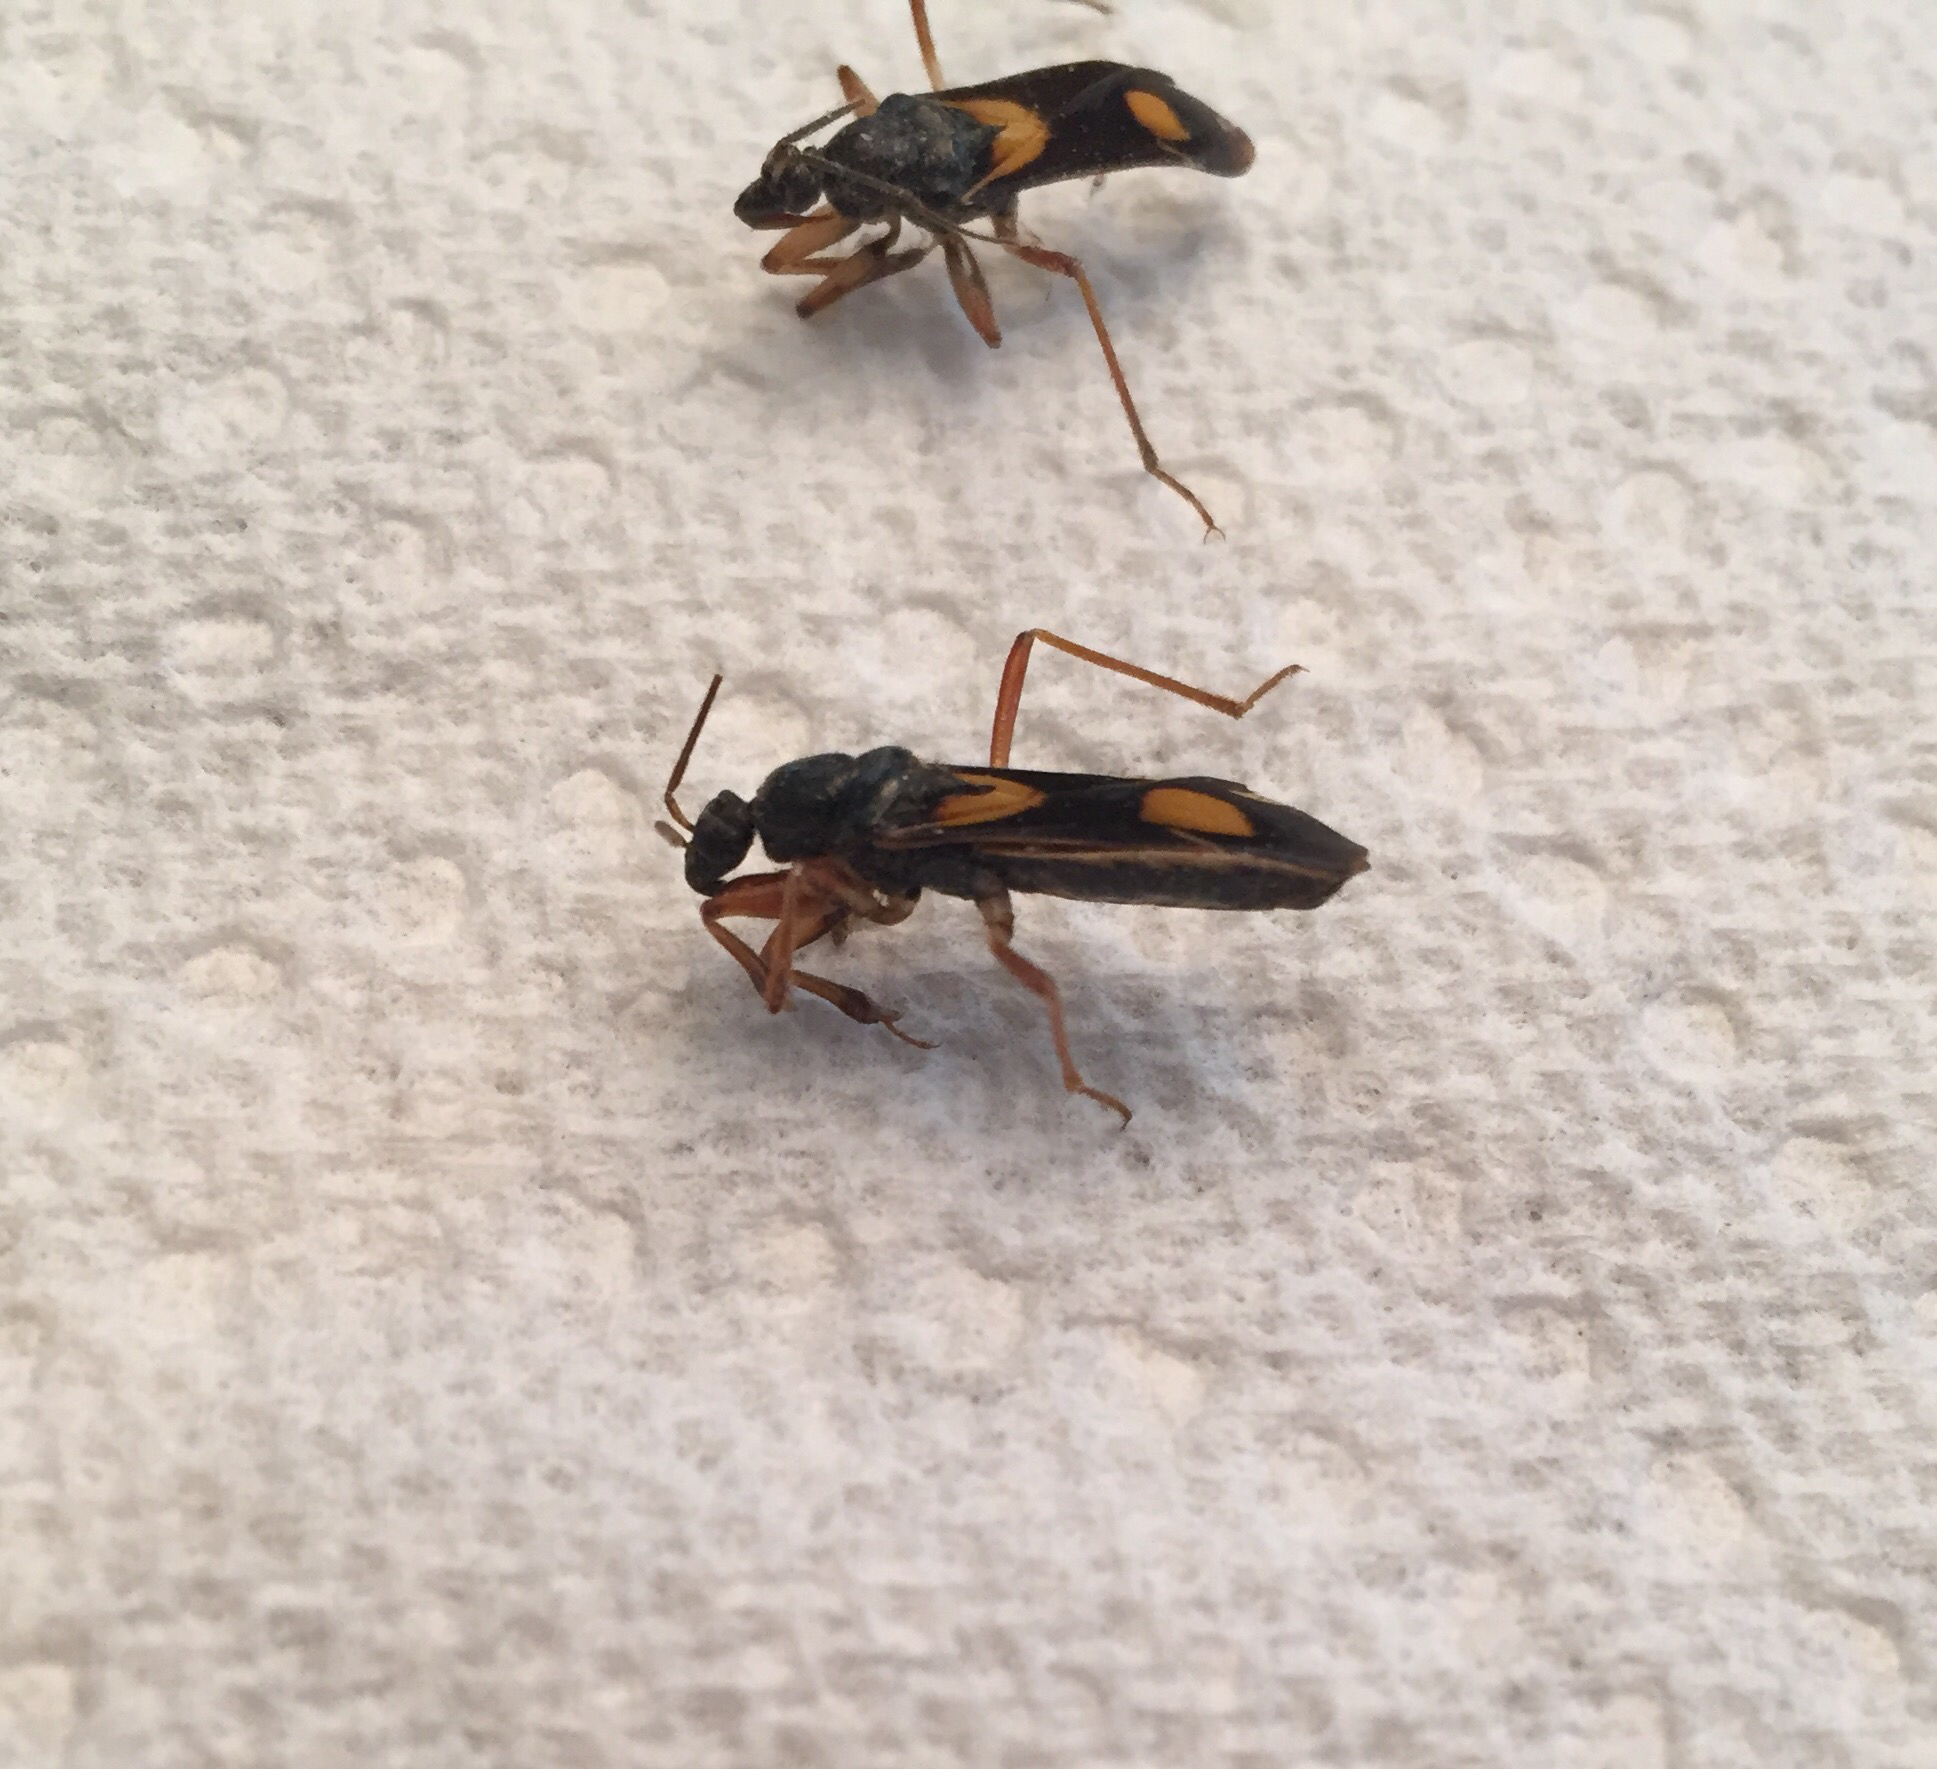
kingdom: Animalia
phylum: Arthropoda
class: Insecta
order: Hemiptera
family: Reduviidae
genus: Rasahus
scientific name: Rasahus hamatus
